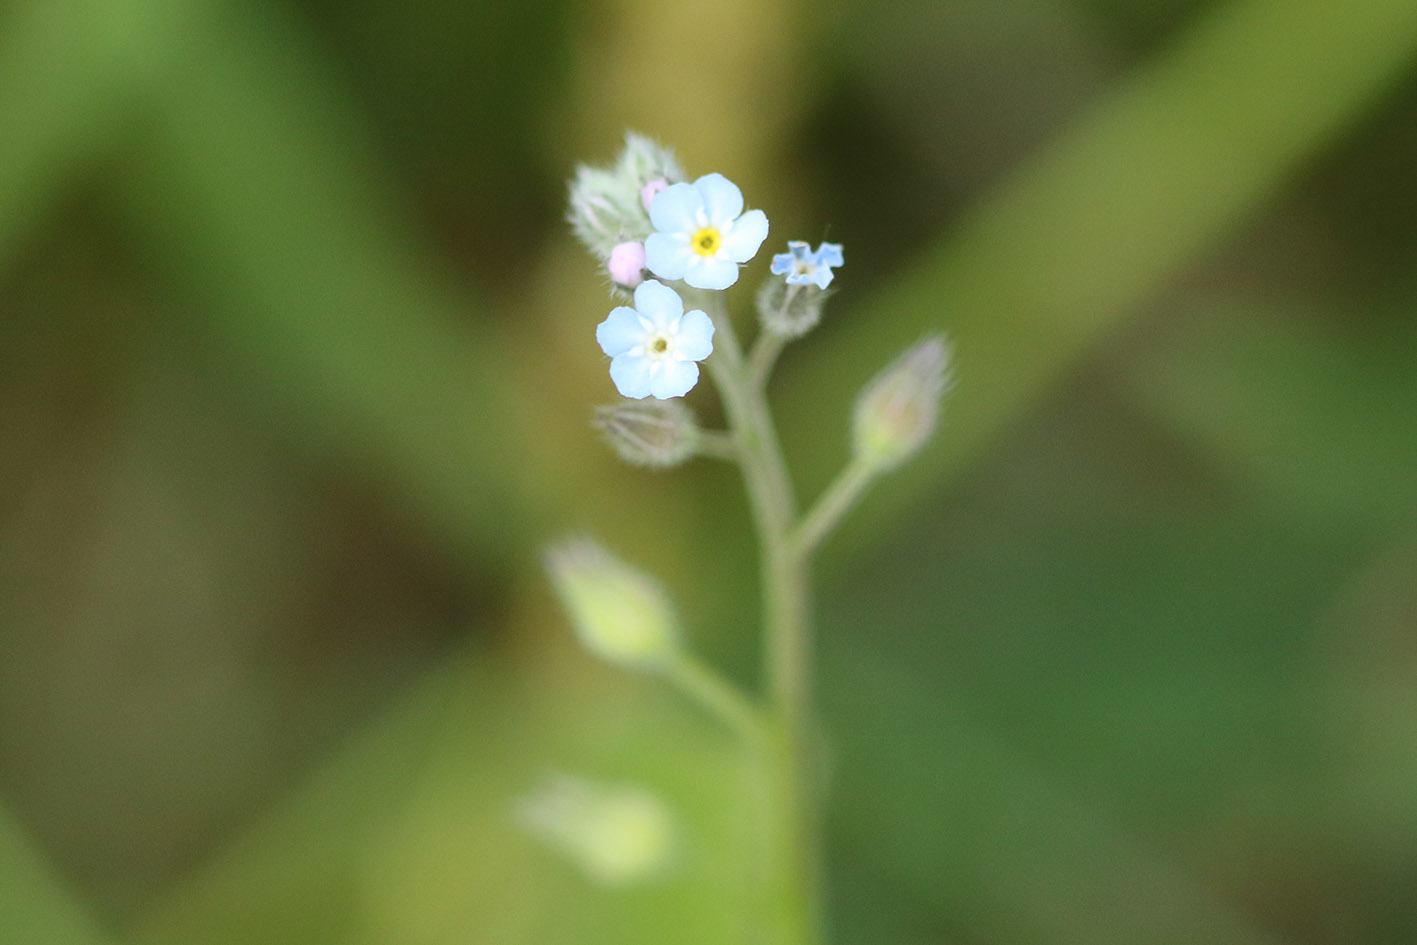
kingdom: Plantae
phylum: Tracheophyta
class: Magnoliopsida
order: Boraginales
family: Boraginaceae
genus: Myosotis
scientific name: Myosotis arvensis
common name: Field forget-me-not
